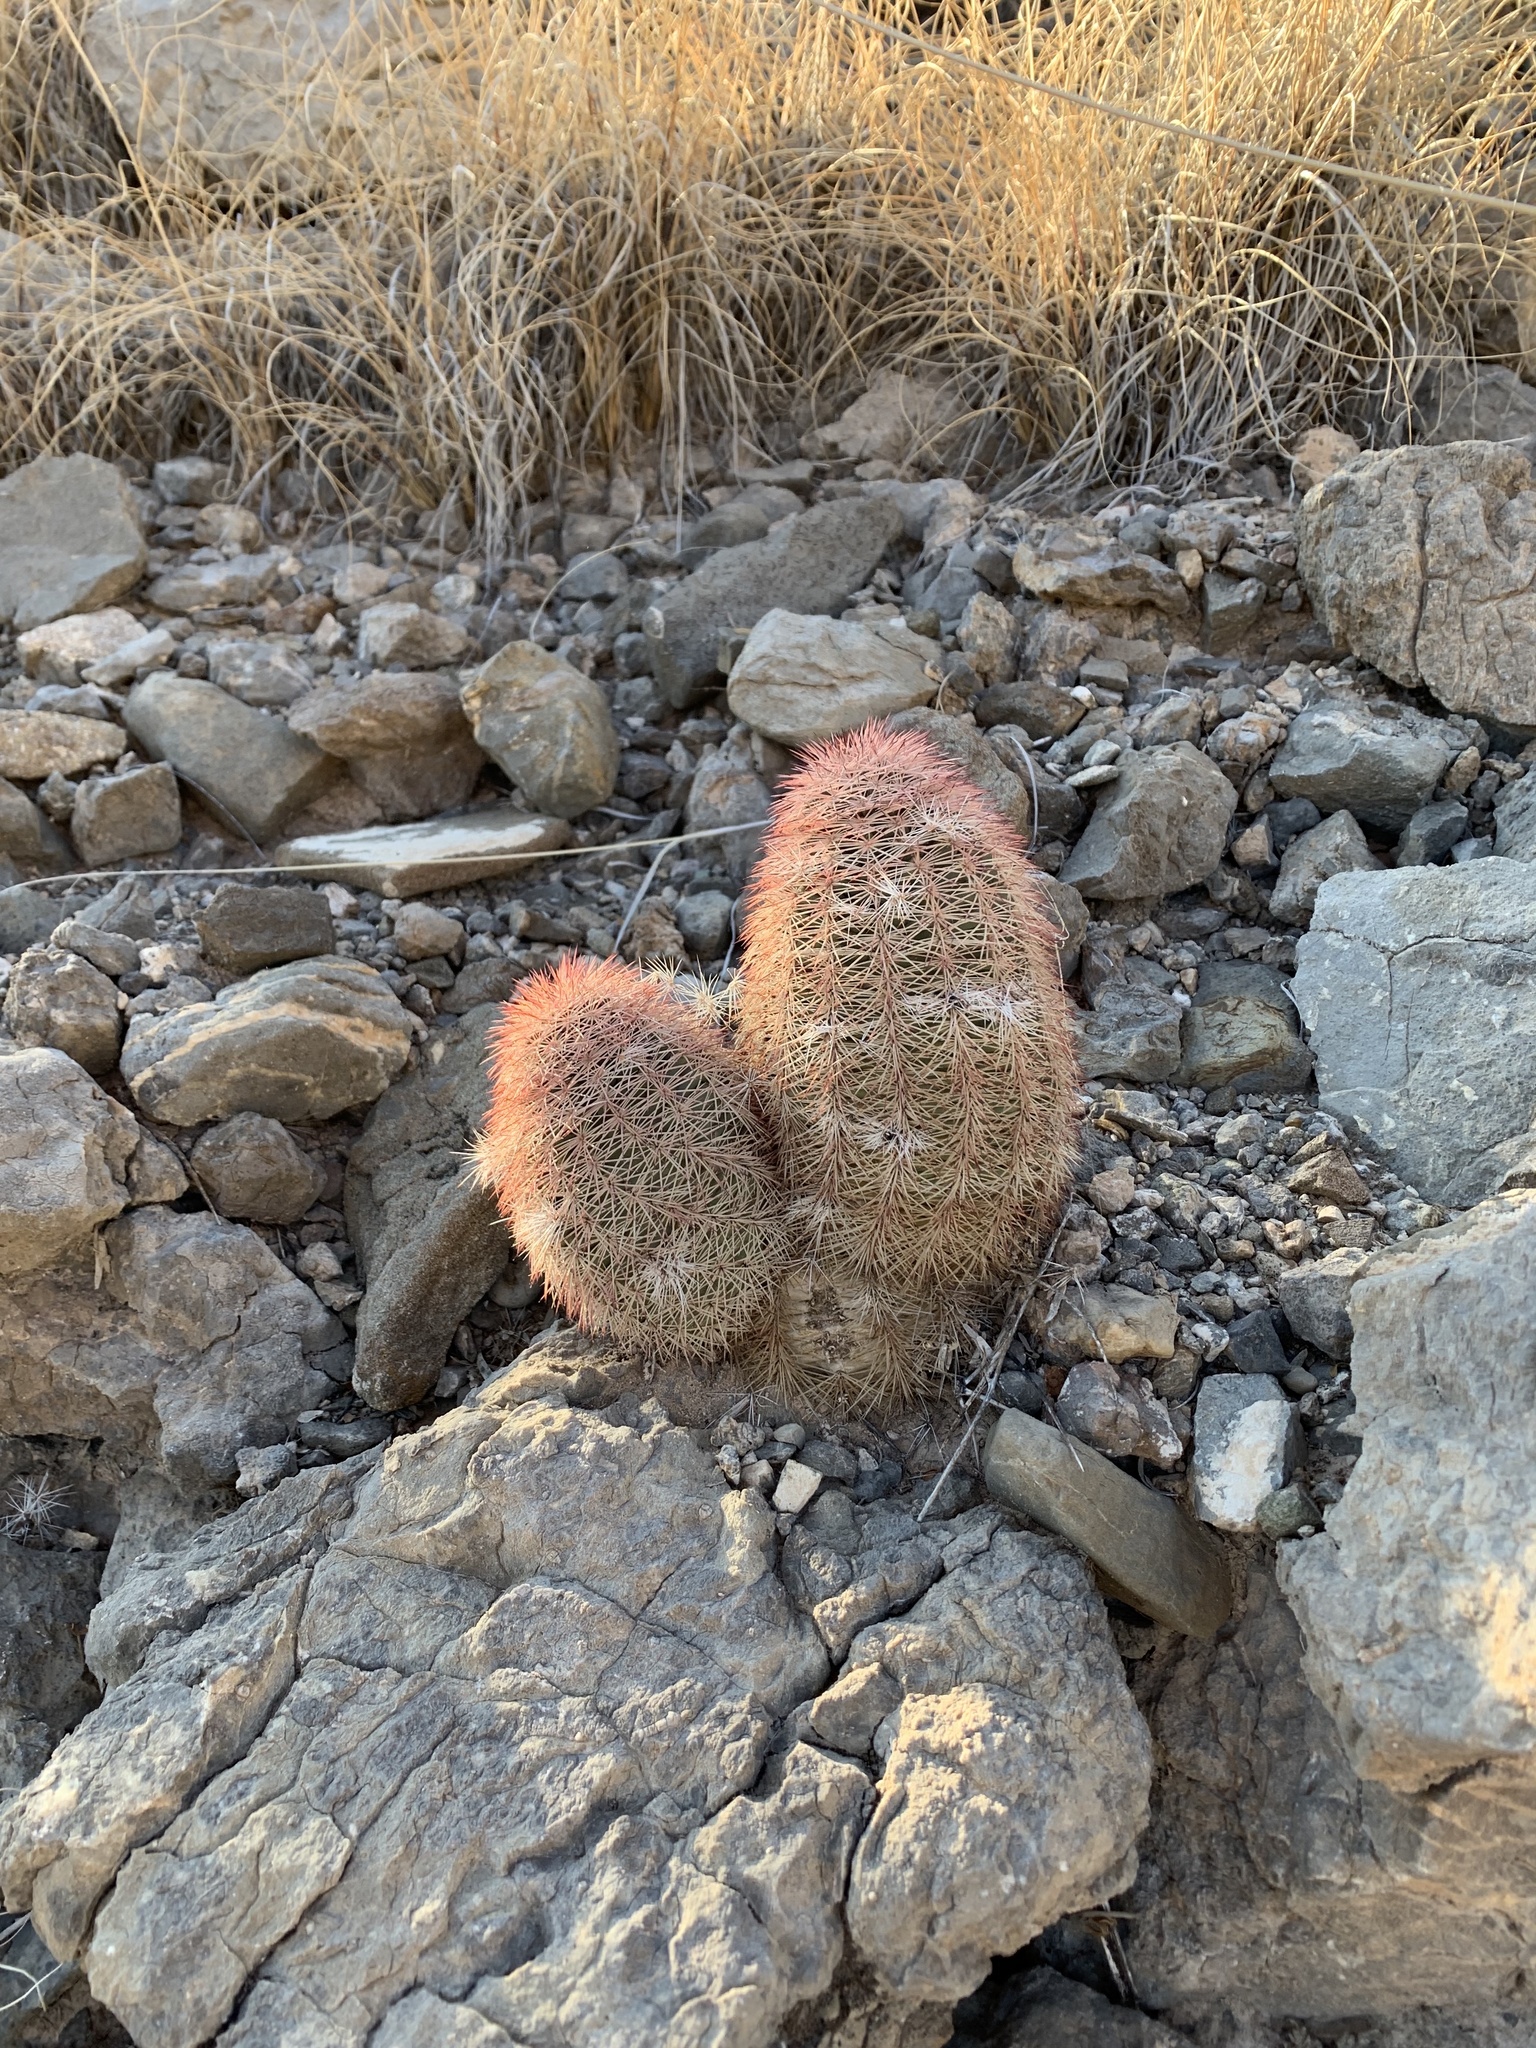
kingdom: Plantae
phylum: Tracheophyta
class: Magnoliopsida
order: Caryophyllales
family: Cactaceae
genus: Echinocereus
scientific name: Echinocereus dasyacanthus
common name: Spiny hedgehog cactus
